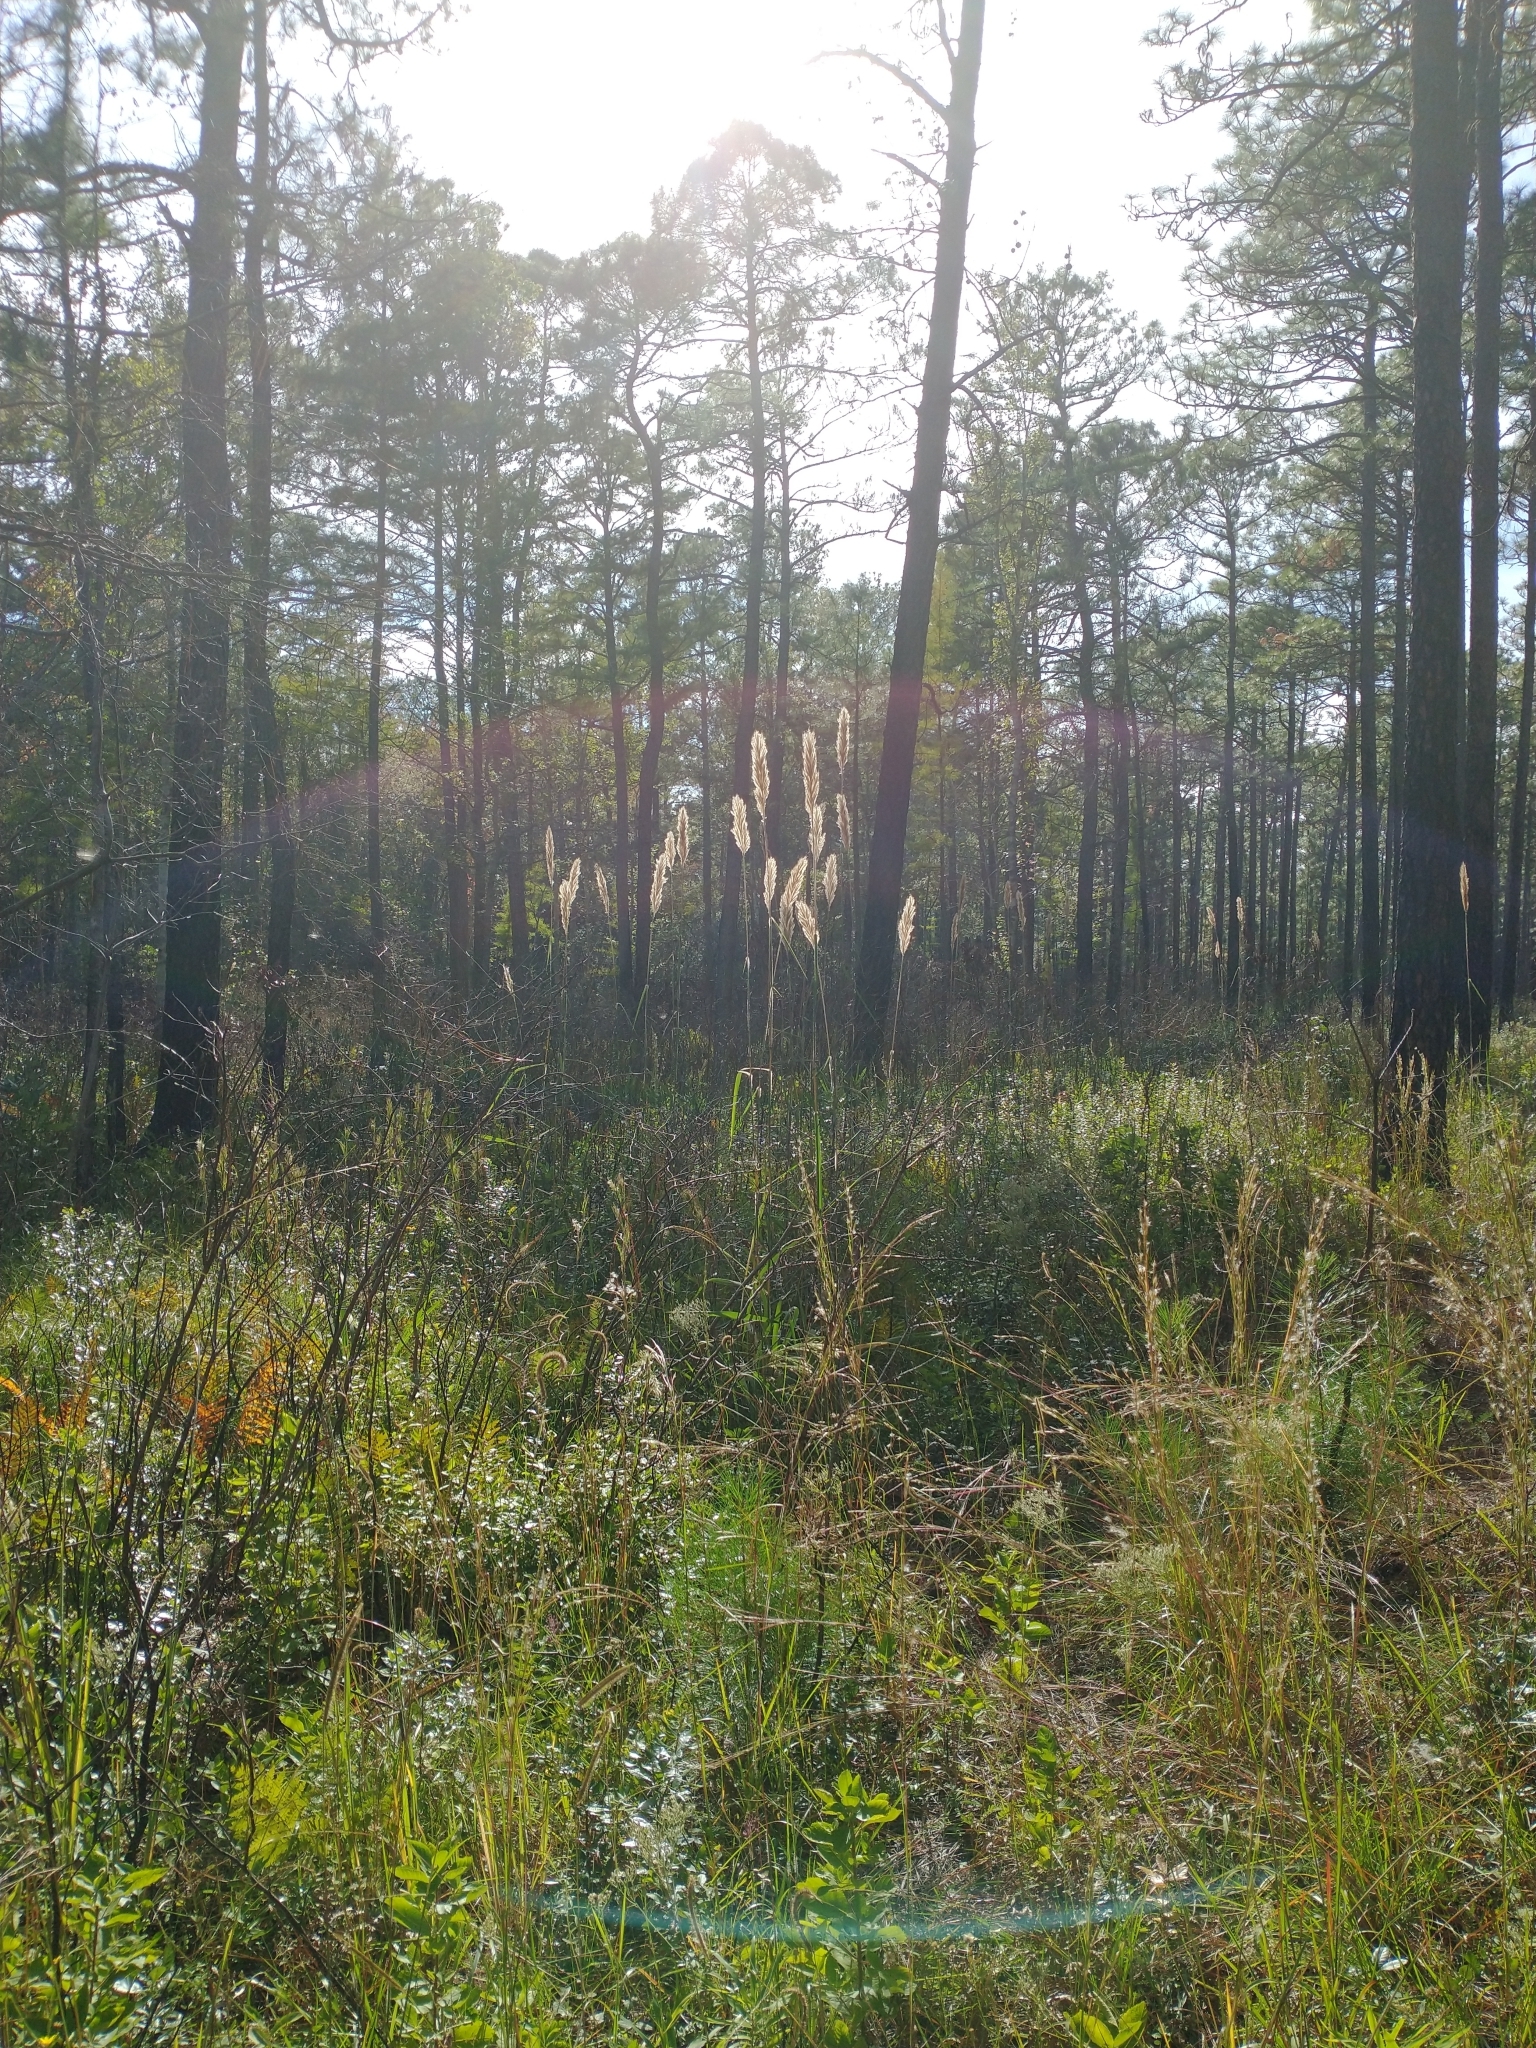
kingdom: Plantae
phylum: Tracheophyta
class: Liliopsida
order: Poales
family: Poaceae
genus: Erianthus
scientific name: Erianthus giganteus
